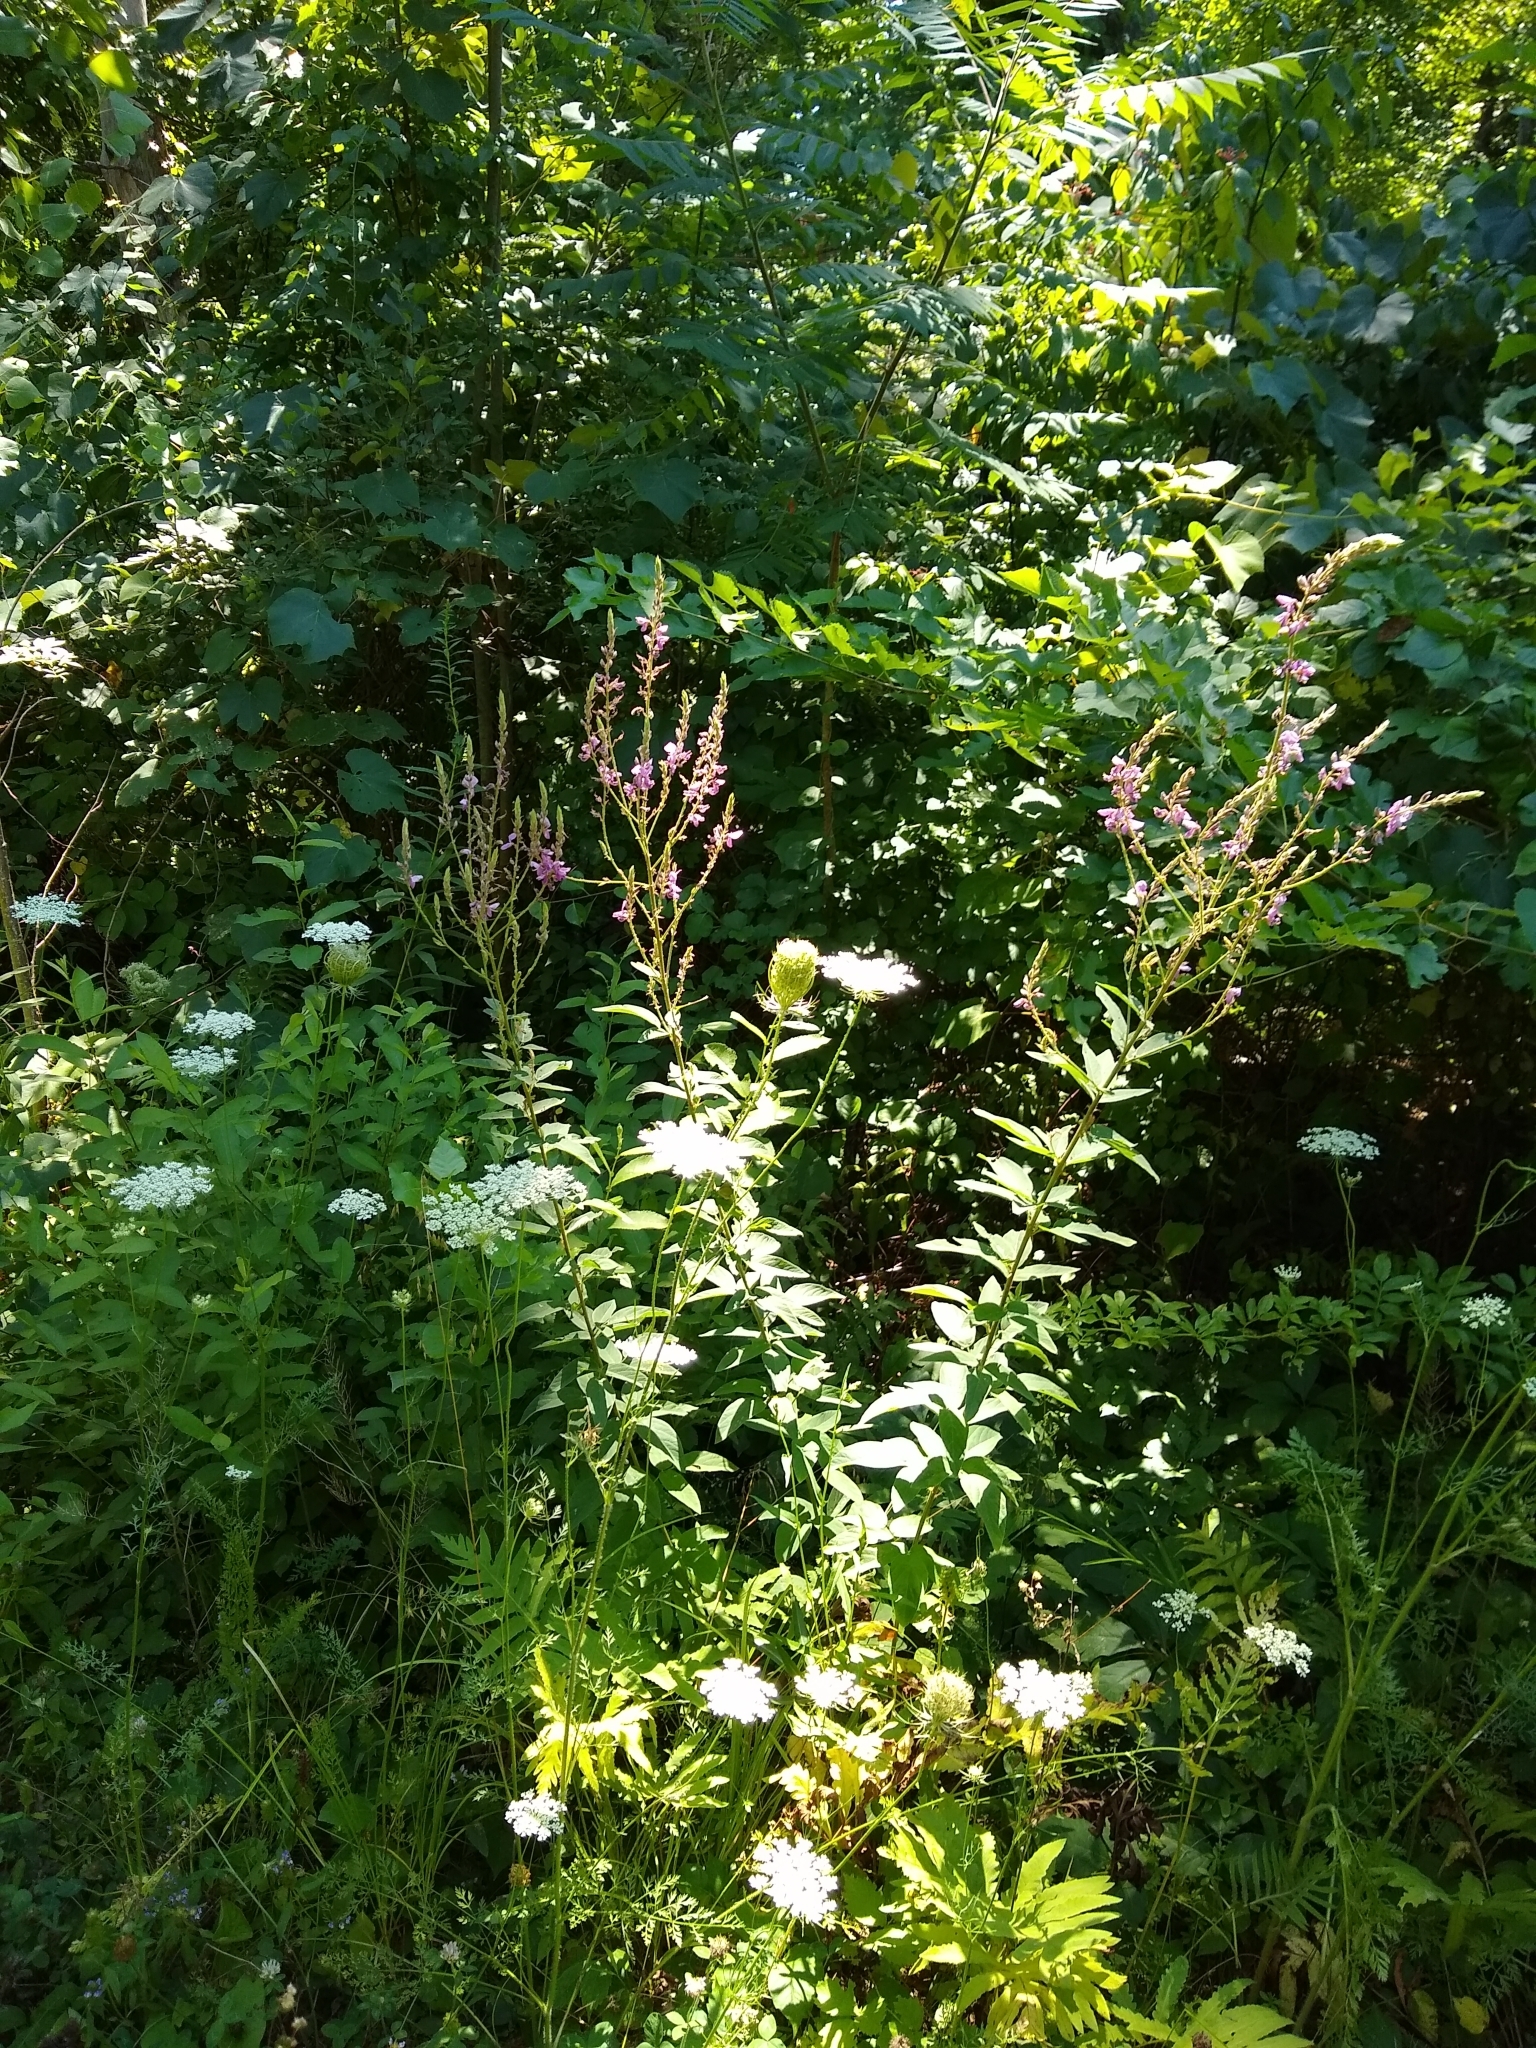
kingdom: Plantae
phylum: Tracheophyta
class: Magnoliopsida
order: Fabales
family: Fabaceae
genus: Desmodium
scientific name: Desmodium canadense
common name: Canada tick-trefoil
